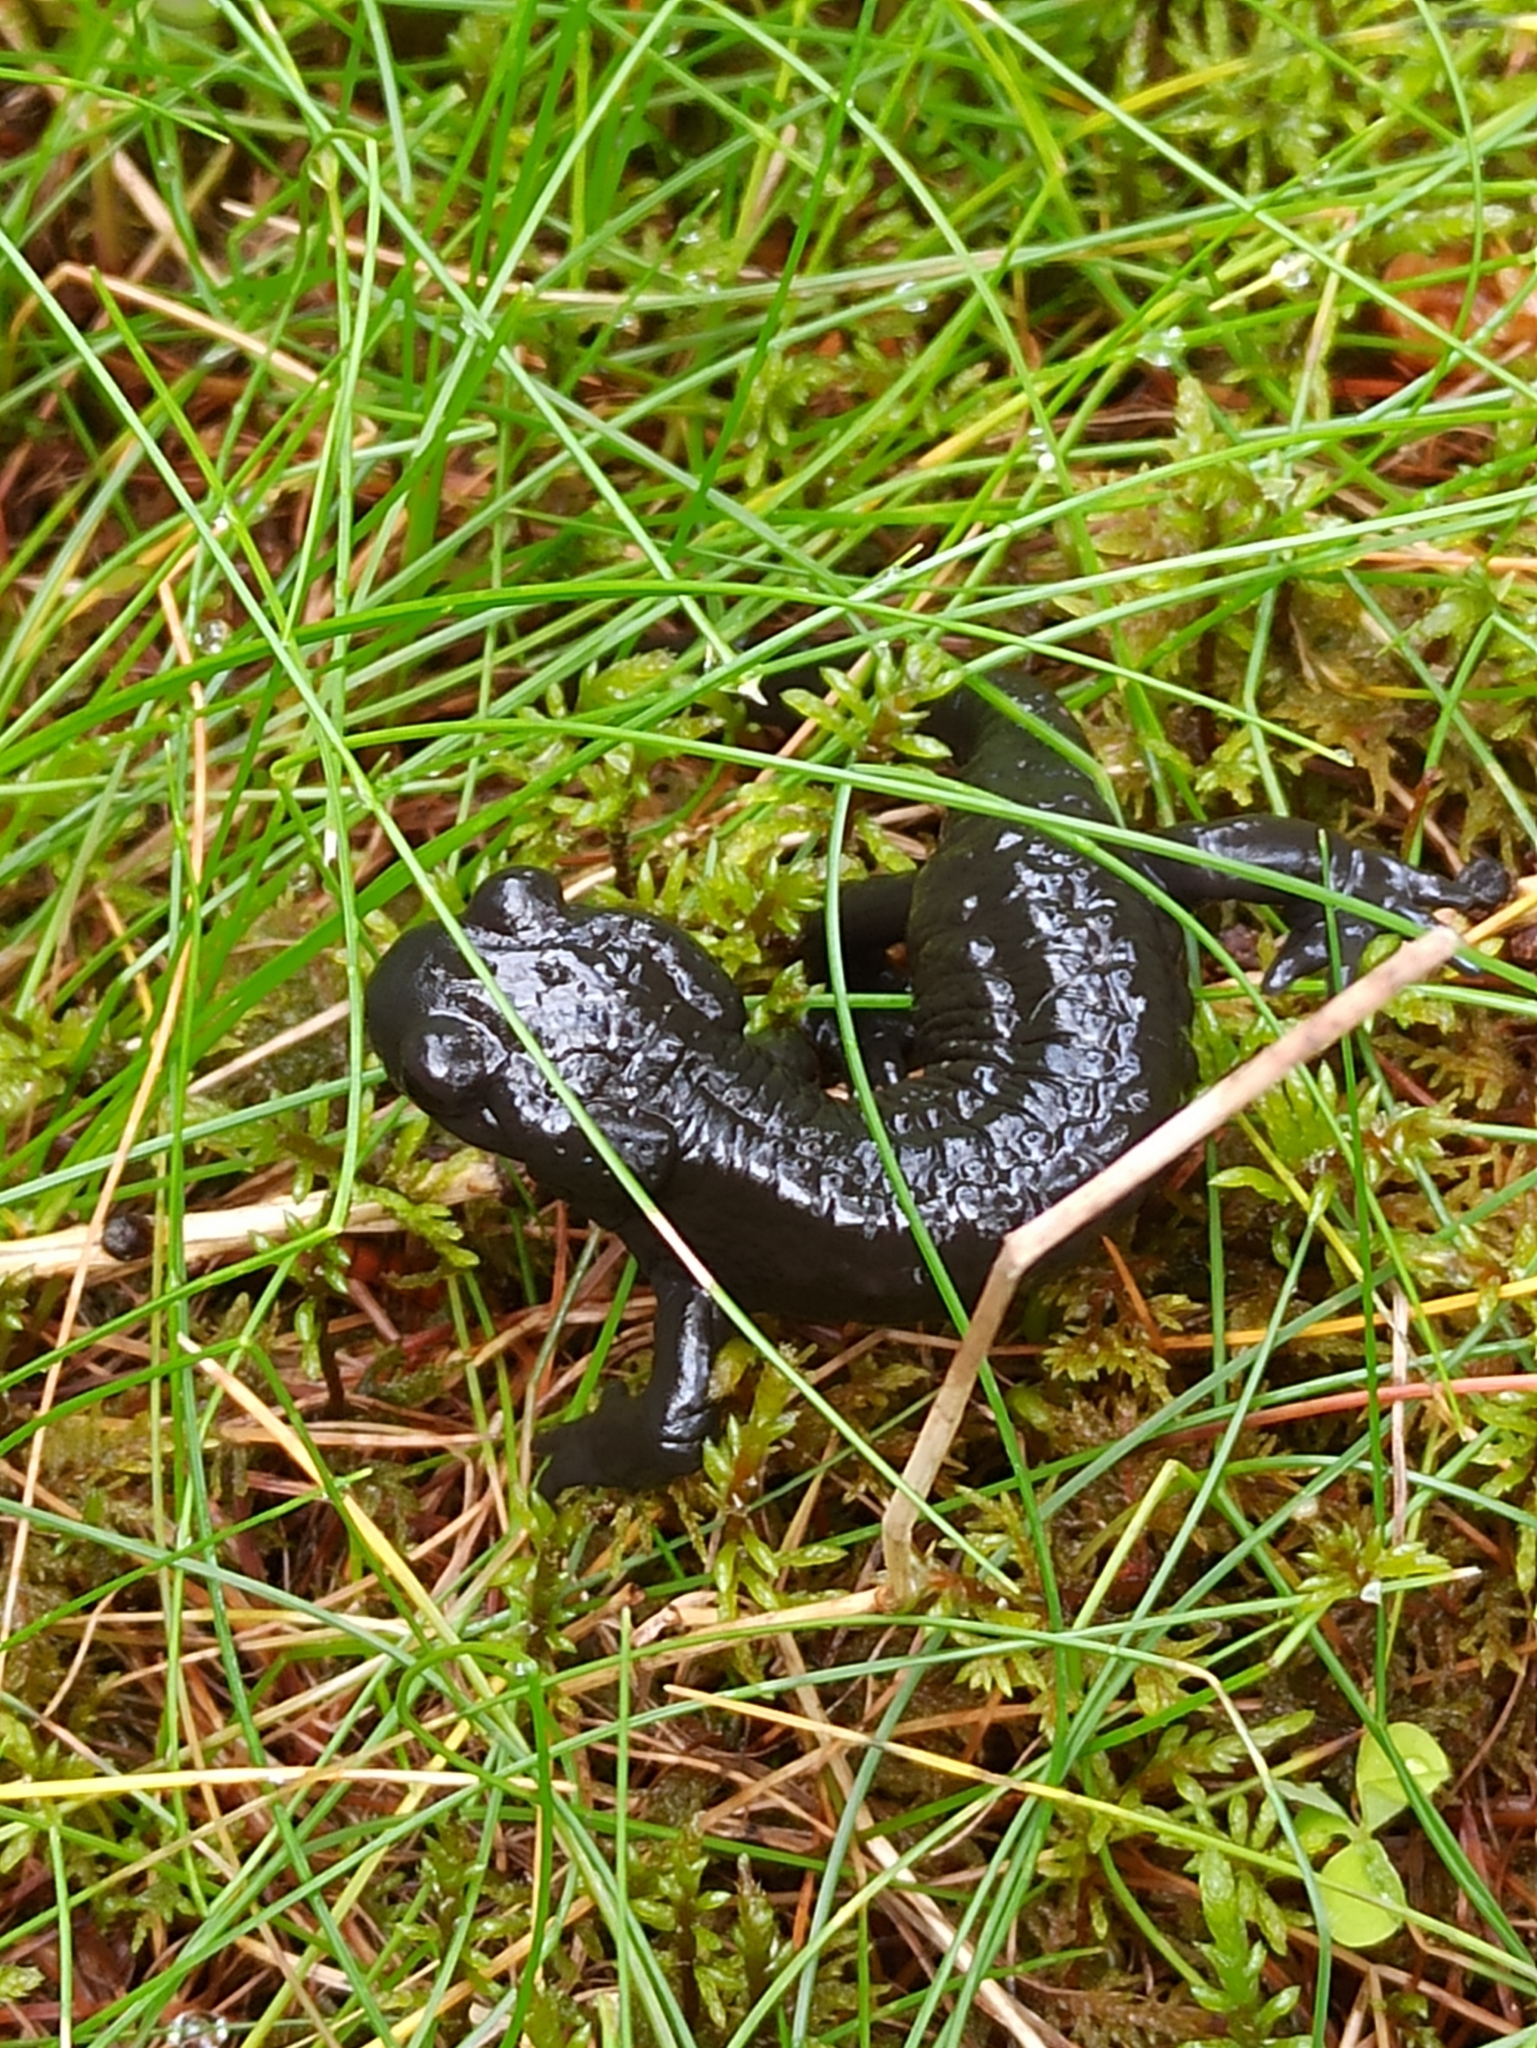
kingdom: Animalia
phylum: Chordata
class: Amphibia
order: Caudata
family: Salamandridae
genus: Salamandra
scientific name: Salamandra atra
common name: Alpine salamander
